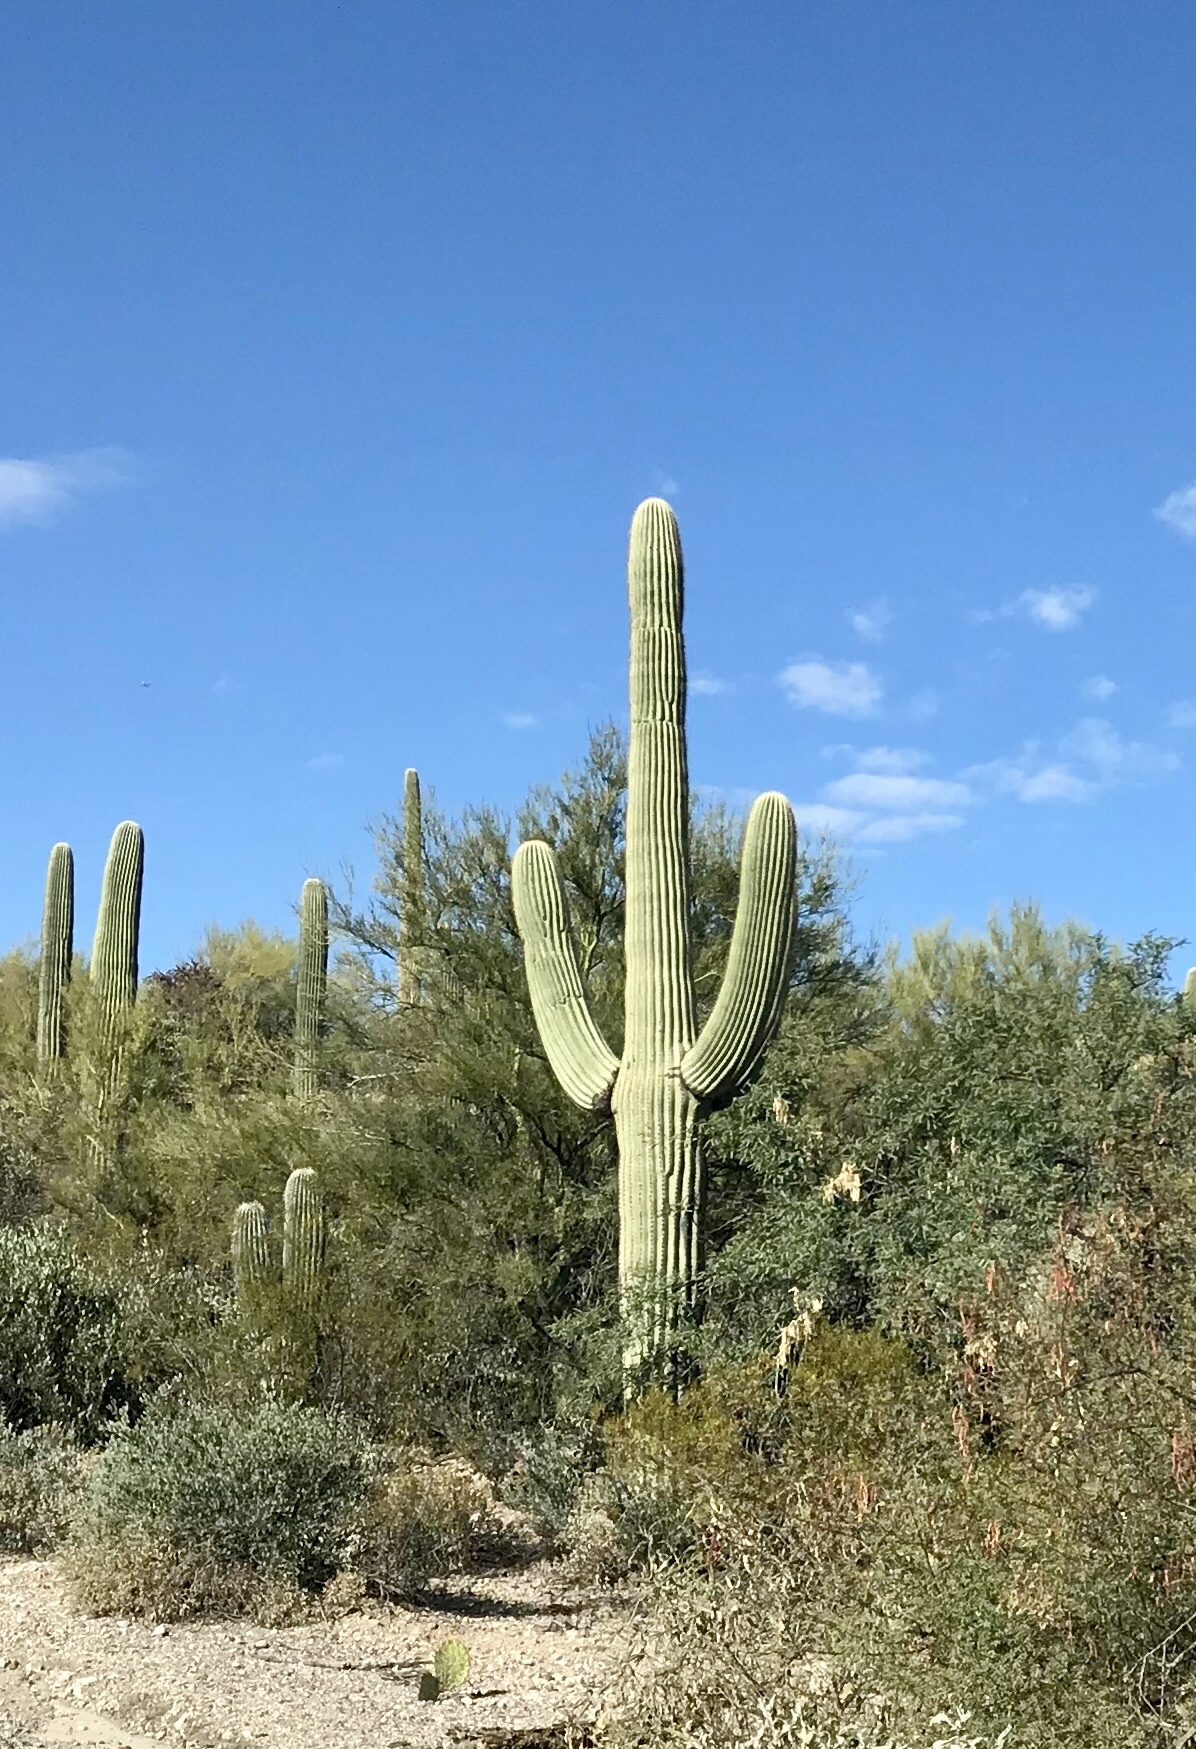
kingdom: Plantae
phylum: Tracheophyta
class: Magnoliopsida
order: Caryophyllales
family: Cactaceae
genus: Carnegiea
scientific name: Carnegiea gigantea
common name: Saguaro
